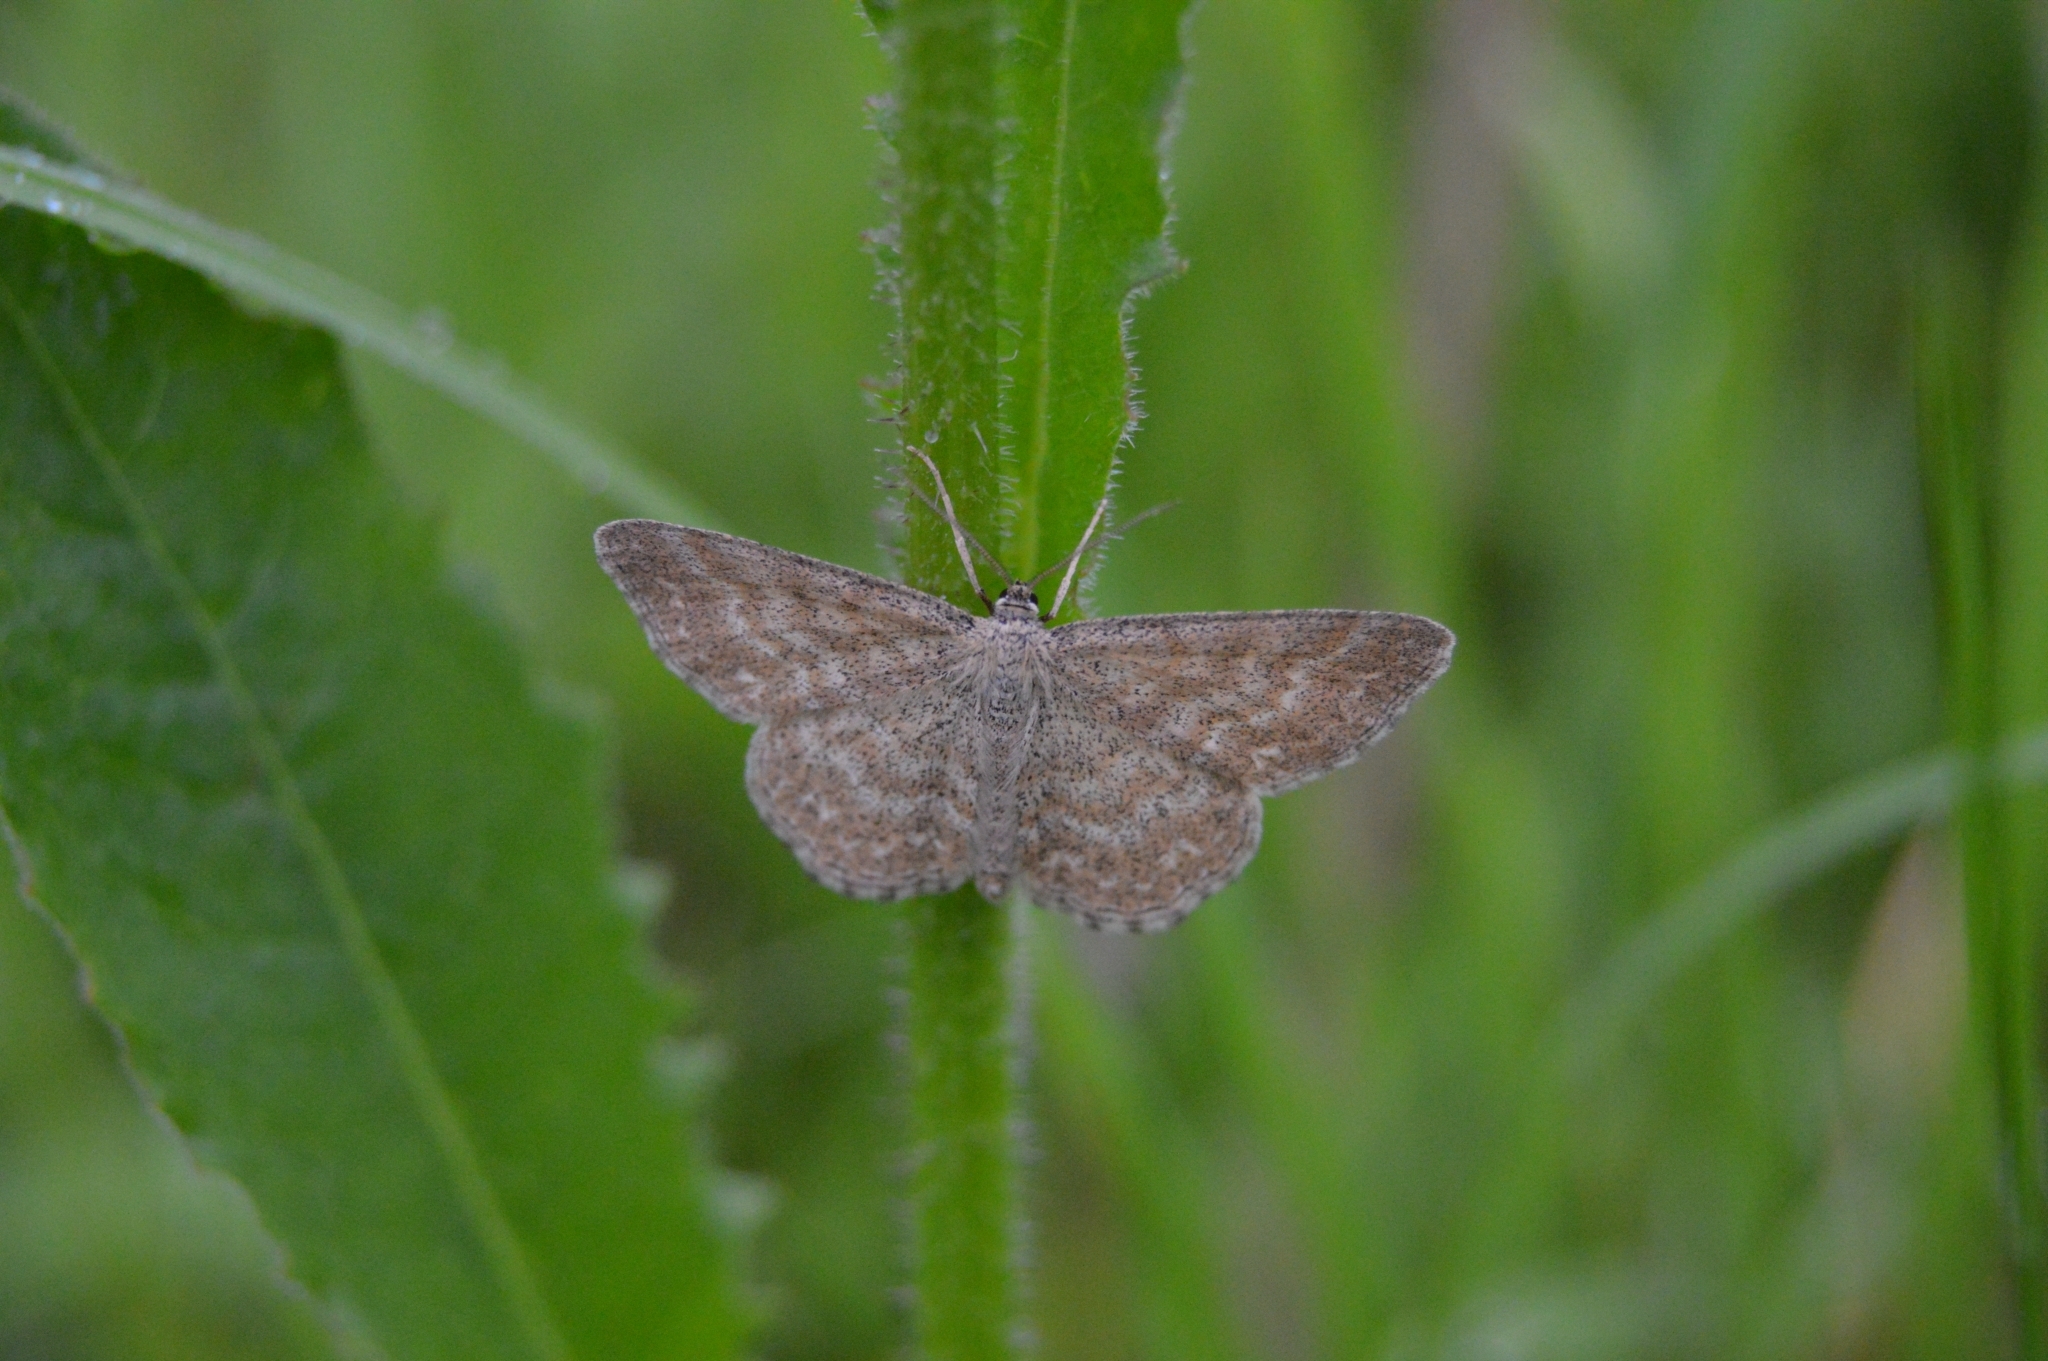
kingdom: Animalia
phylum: Arthropoda
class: Insecta
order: Lepidoptera
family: Geometridae
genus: Scopula
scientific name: Scopula immorata
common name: Lewes wave
